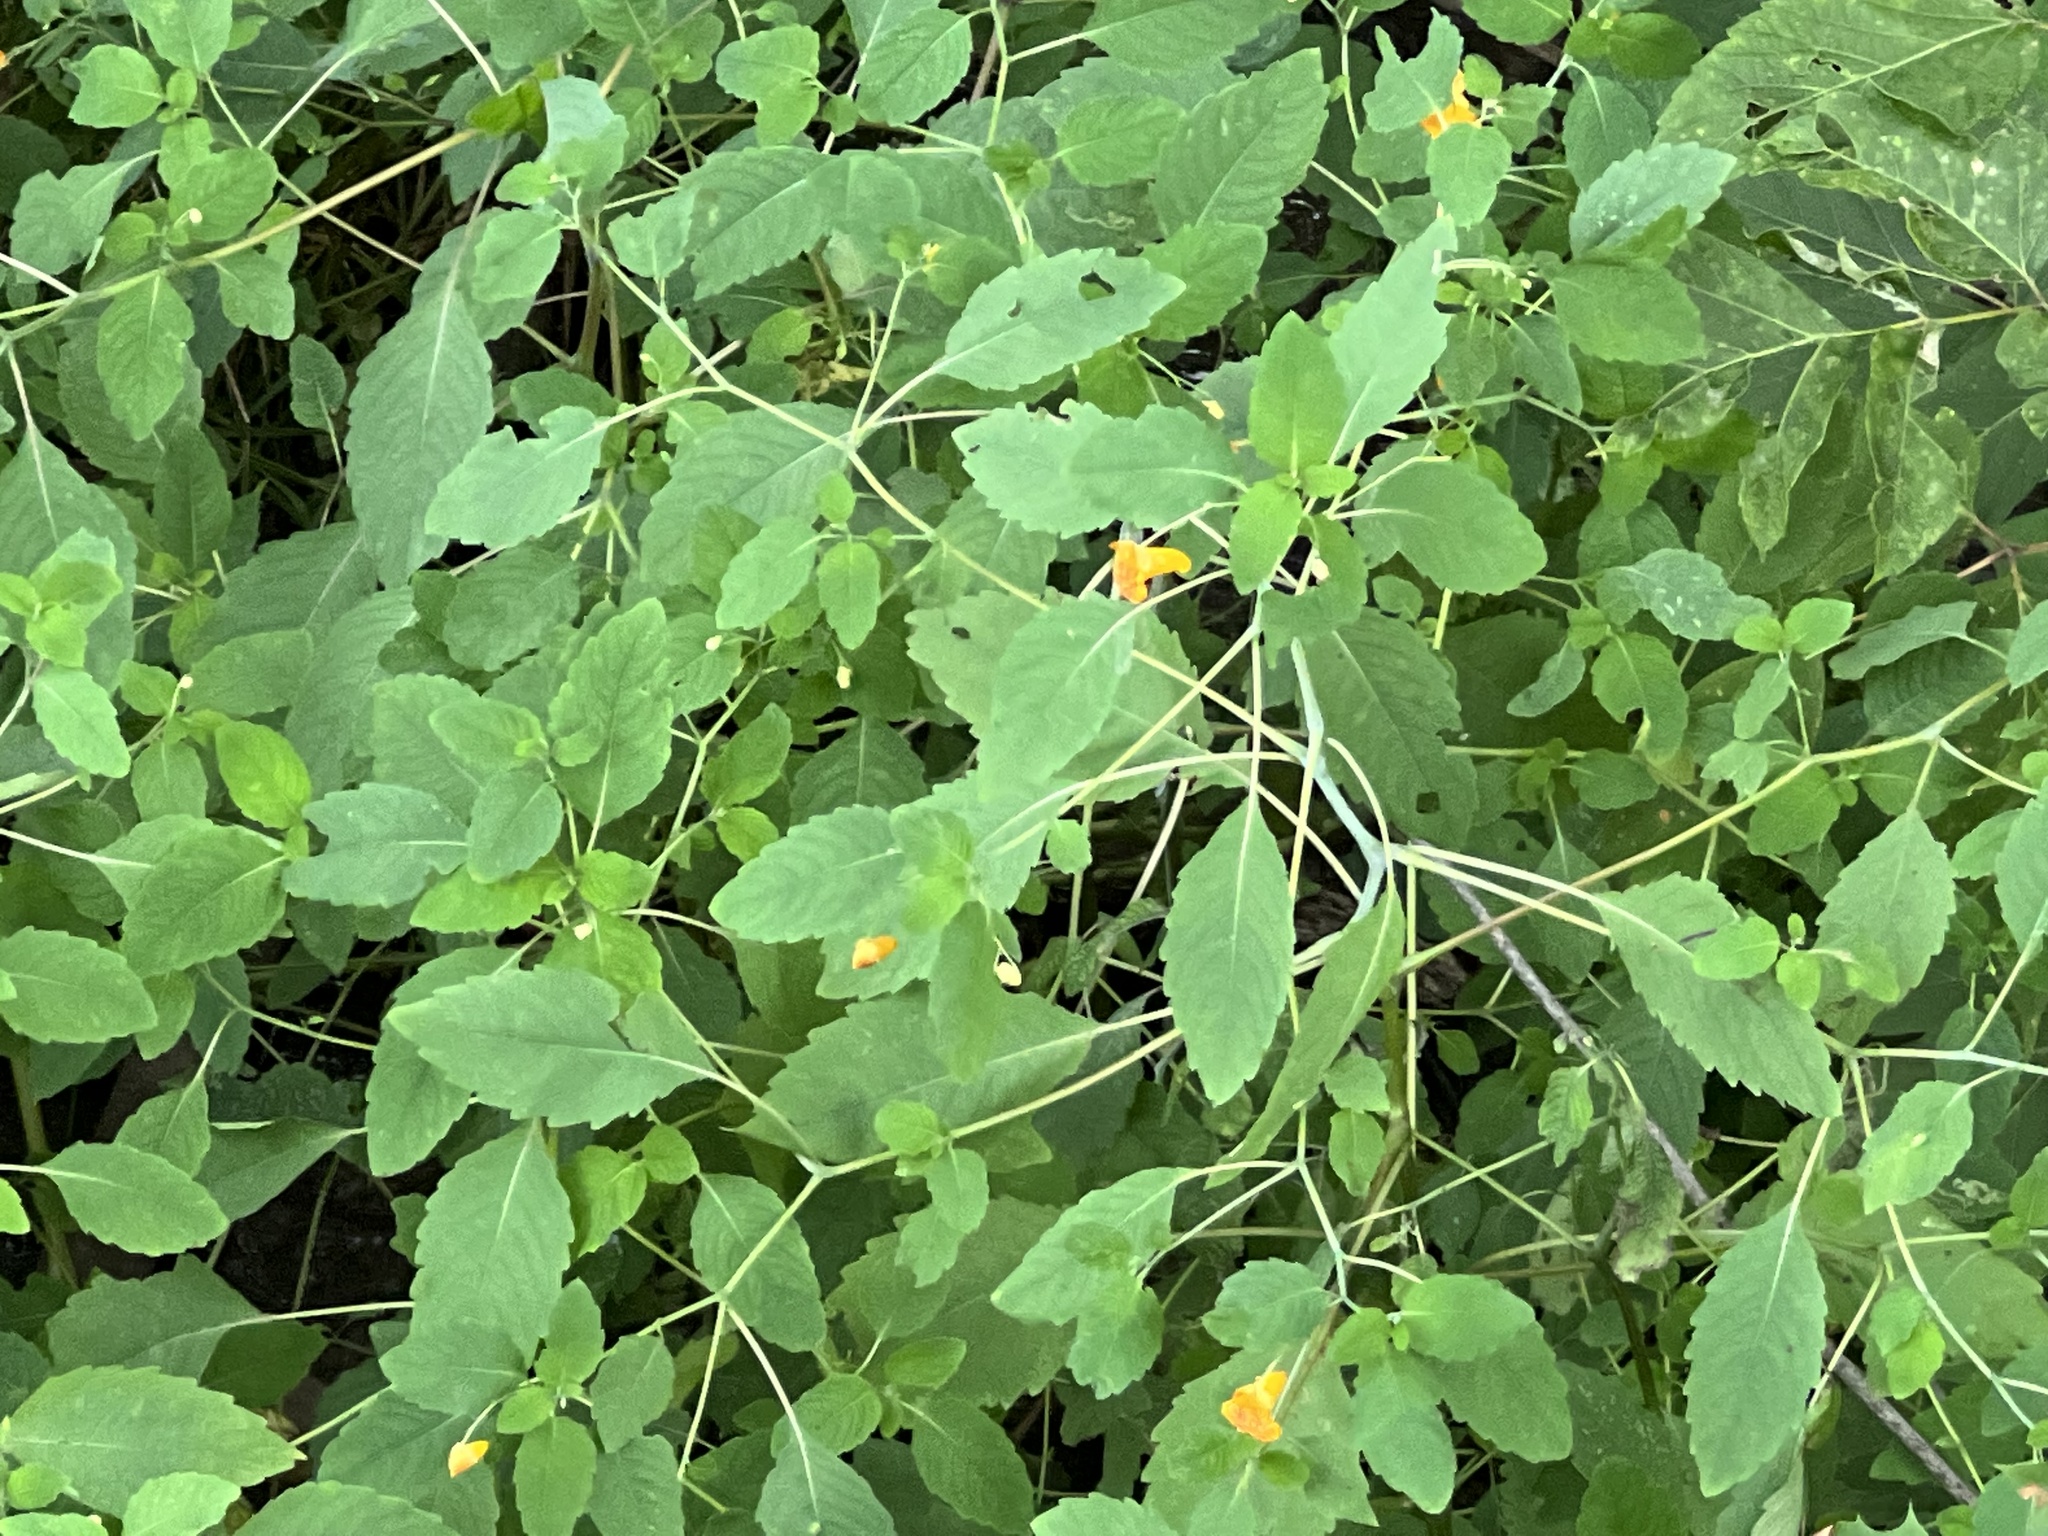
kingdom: Plantae
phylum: Tracheophyta
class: Magnoliopsida
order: Ericales
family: Balsaminaceae
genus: Impatiens
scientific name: Impatiens capensis
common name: Orange balsam
